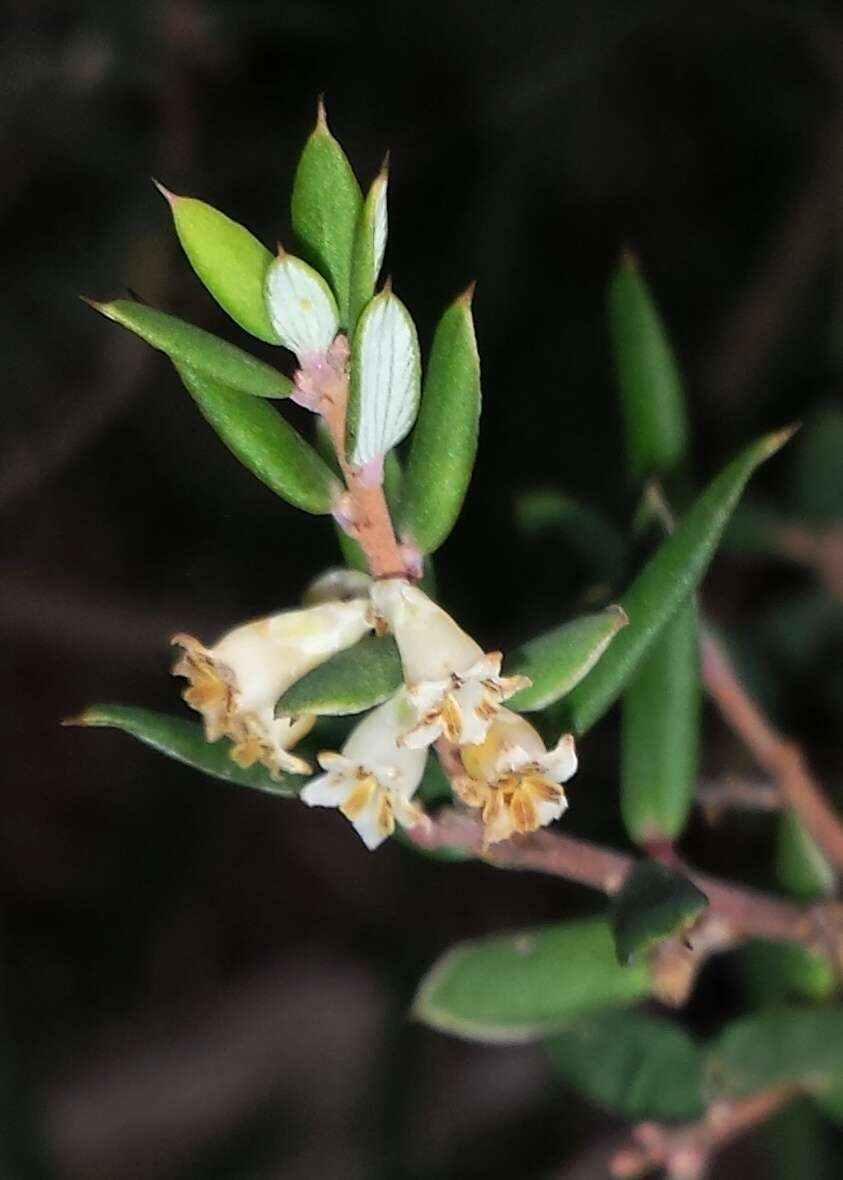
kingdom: Plantae
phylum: Tracheophyta
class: Magnoliopsida
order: Ericales
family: Ericaceae
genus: Monotoca
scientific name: Monotoca scoparia
